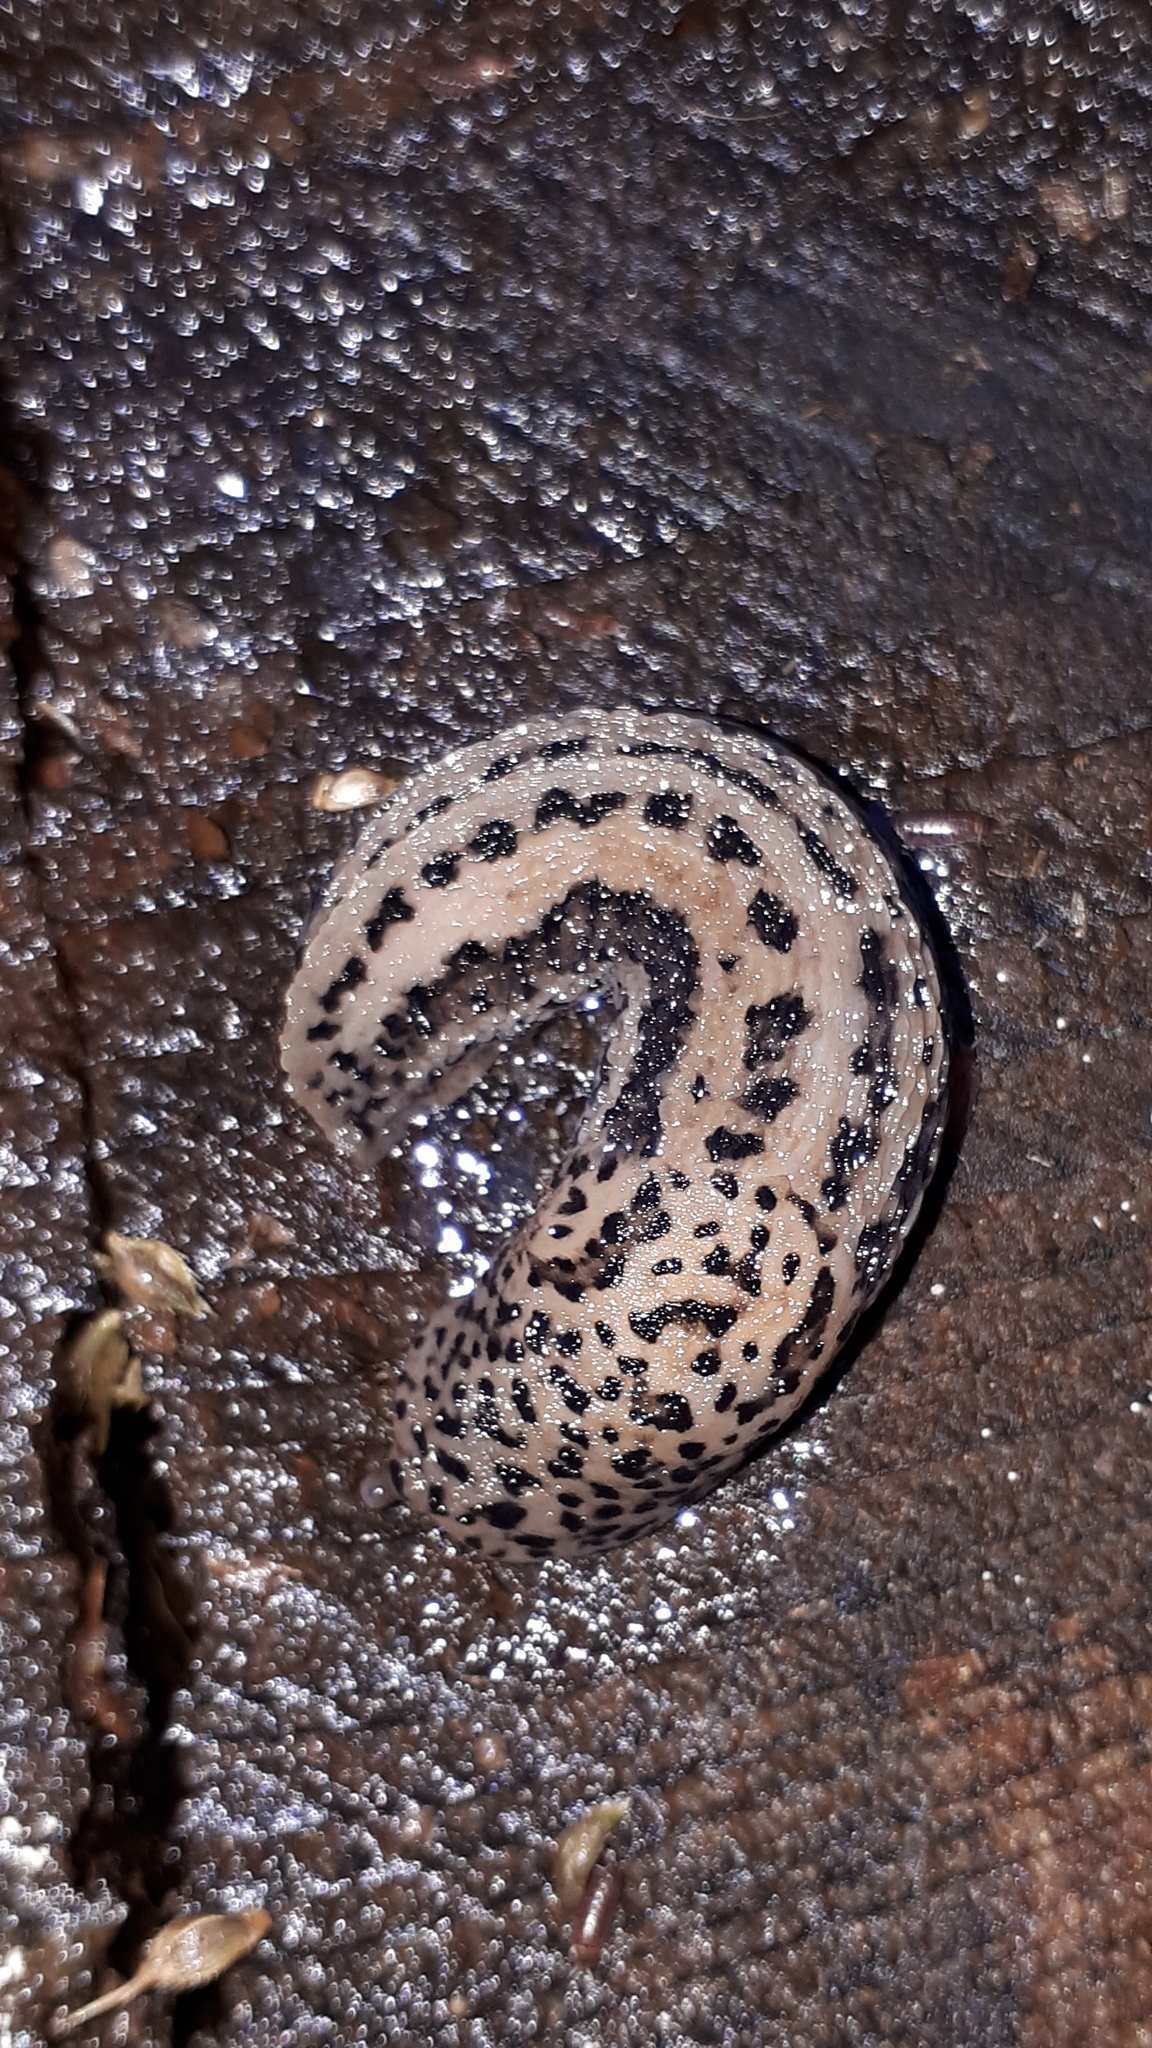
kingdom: Animalia
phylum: Mollusca
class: Gastropoda
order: Stylommatophora
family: Limacidae
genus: Limax
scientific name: Limax maximus
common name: Great grey slug
